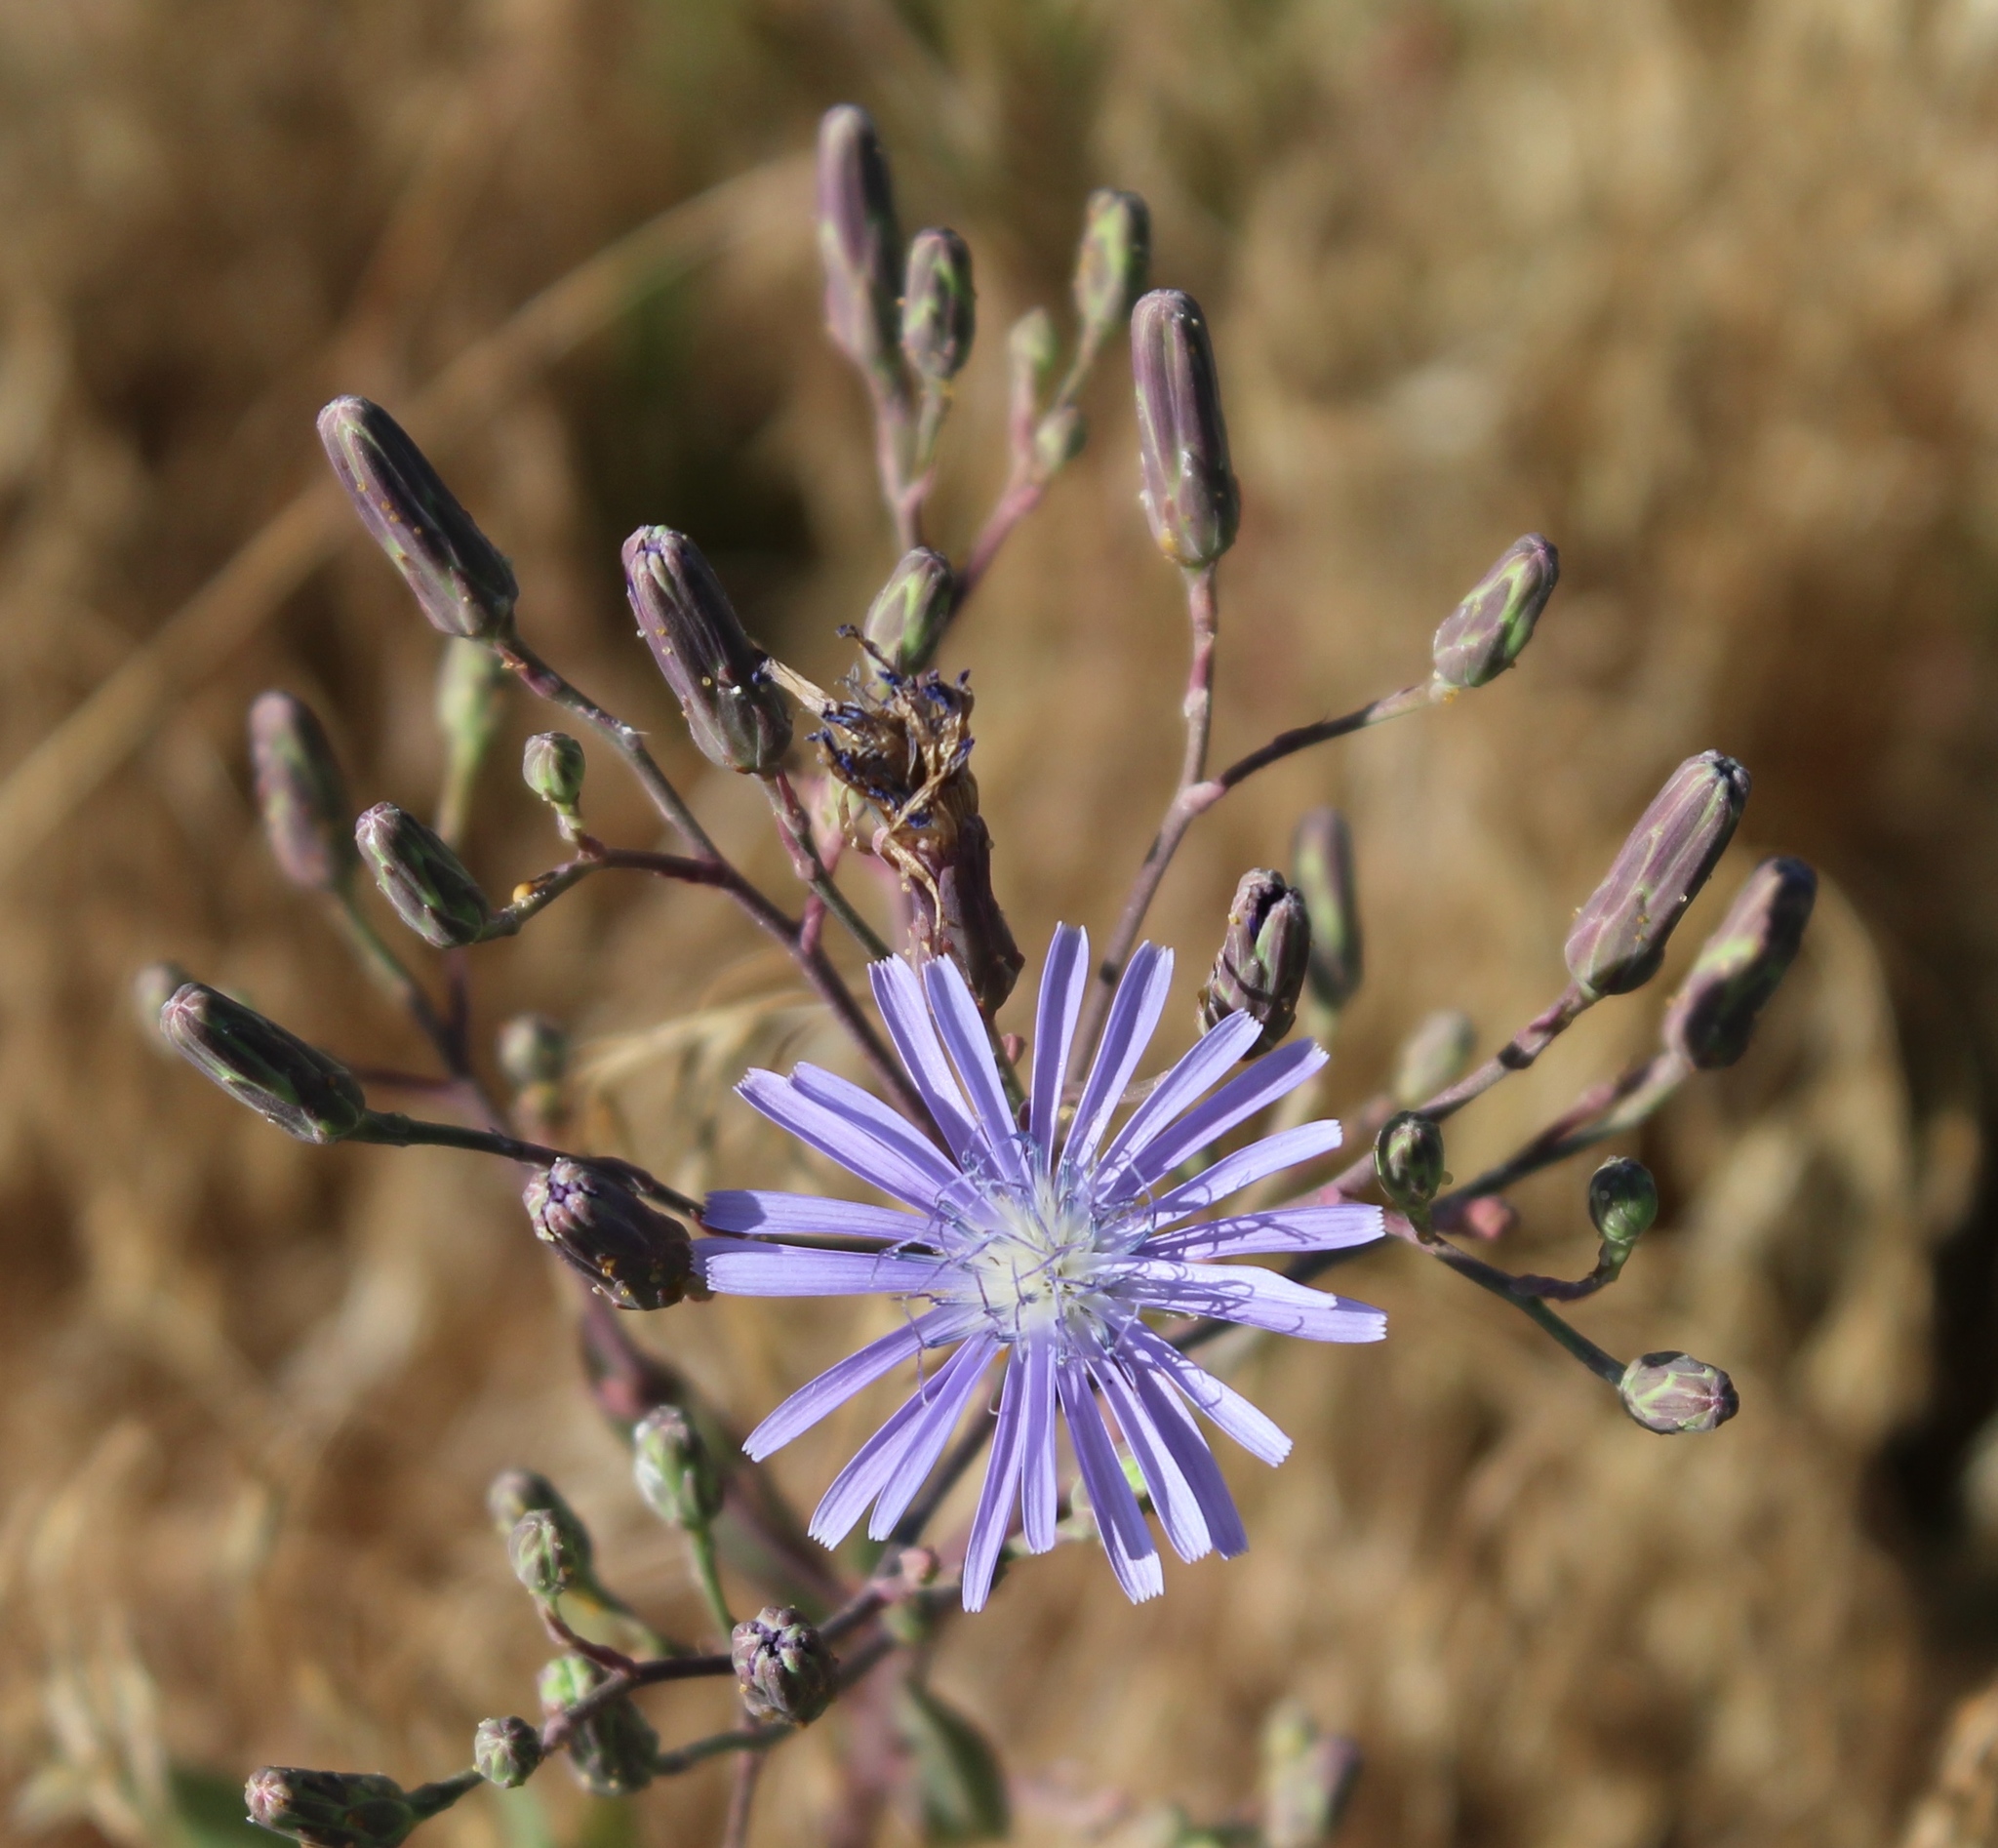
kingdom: Plantae
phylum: Tracheophyta
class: Magnoliopsida
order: Asterales
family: Asteraceae
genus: Lactuca
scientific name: Lactuca pulchella
